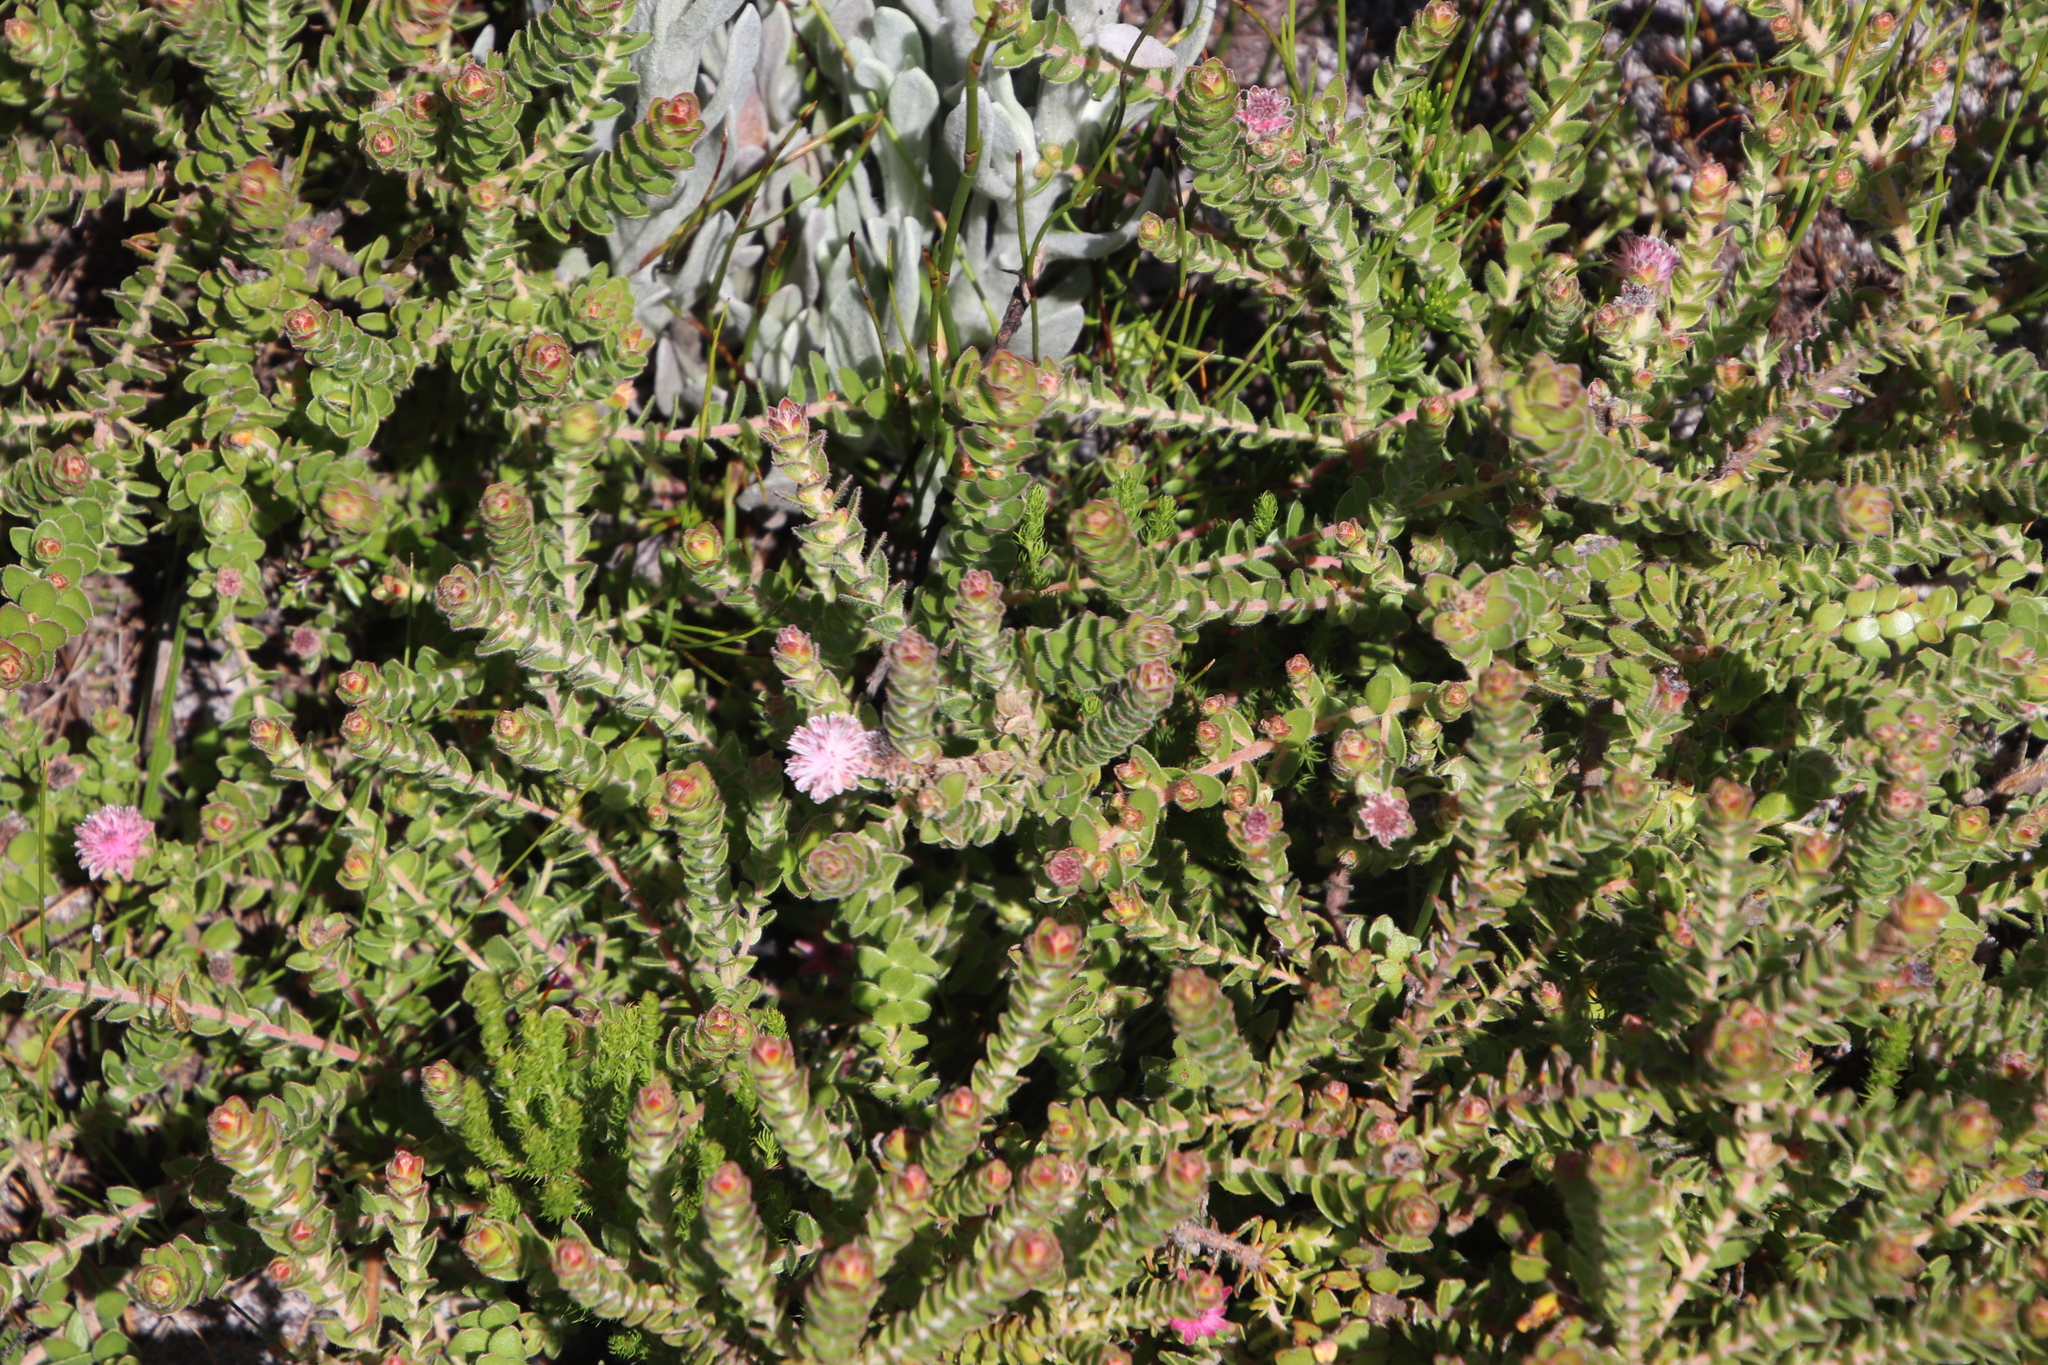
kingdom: Plantae
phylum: Tracheophyta
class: Magnoliopsida
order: Proteales
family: Proteaceae
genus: Diastella
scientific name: Diastella divaricata
